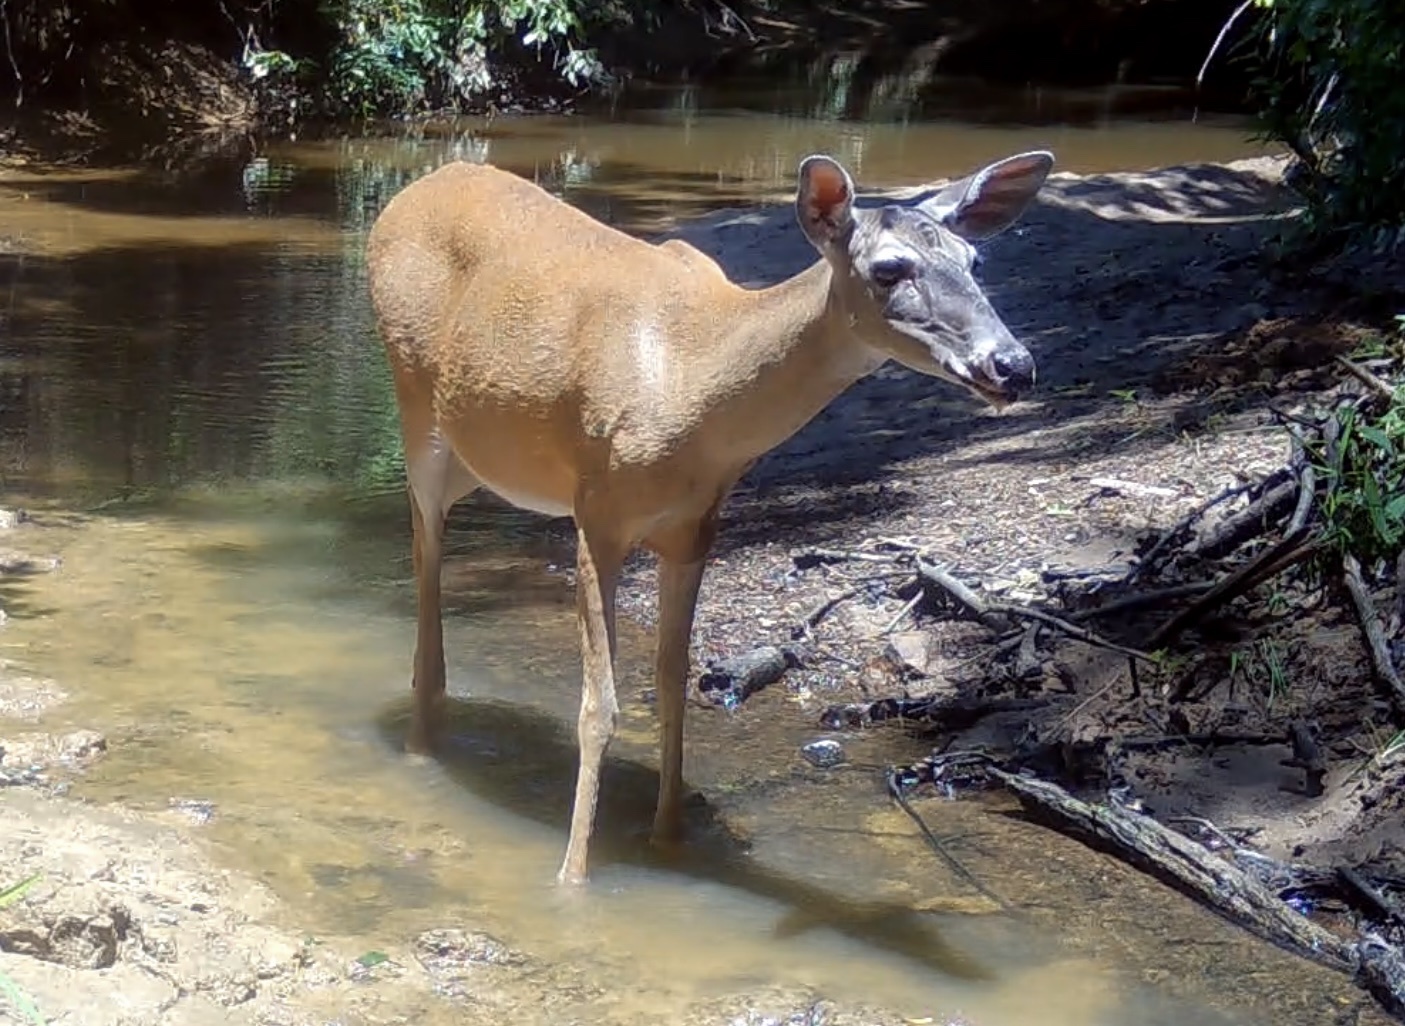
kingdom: Animalia
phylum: Chordata
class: Mammalia
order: Artiodactyla
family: Cervidae
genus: Odocoileus
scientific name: Odocoileus virginianus
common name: White-tailed deer
